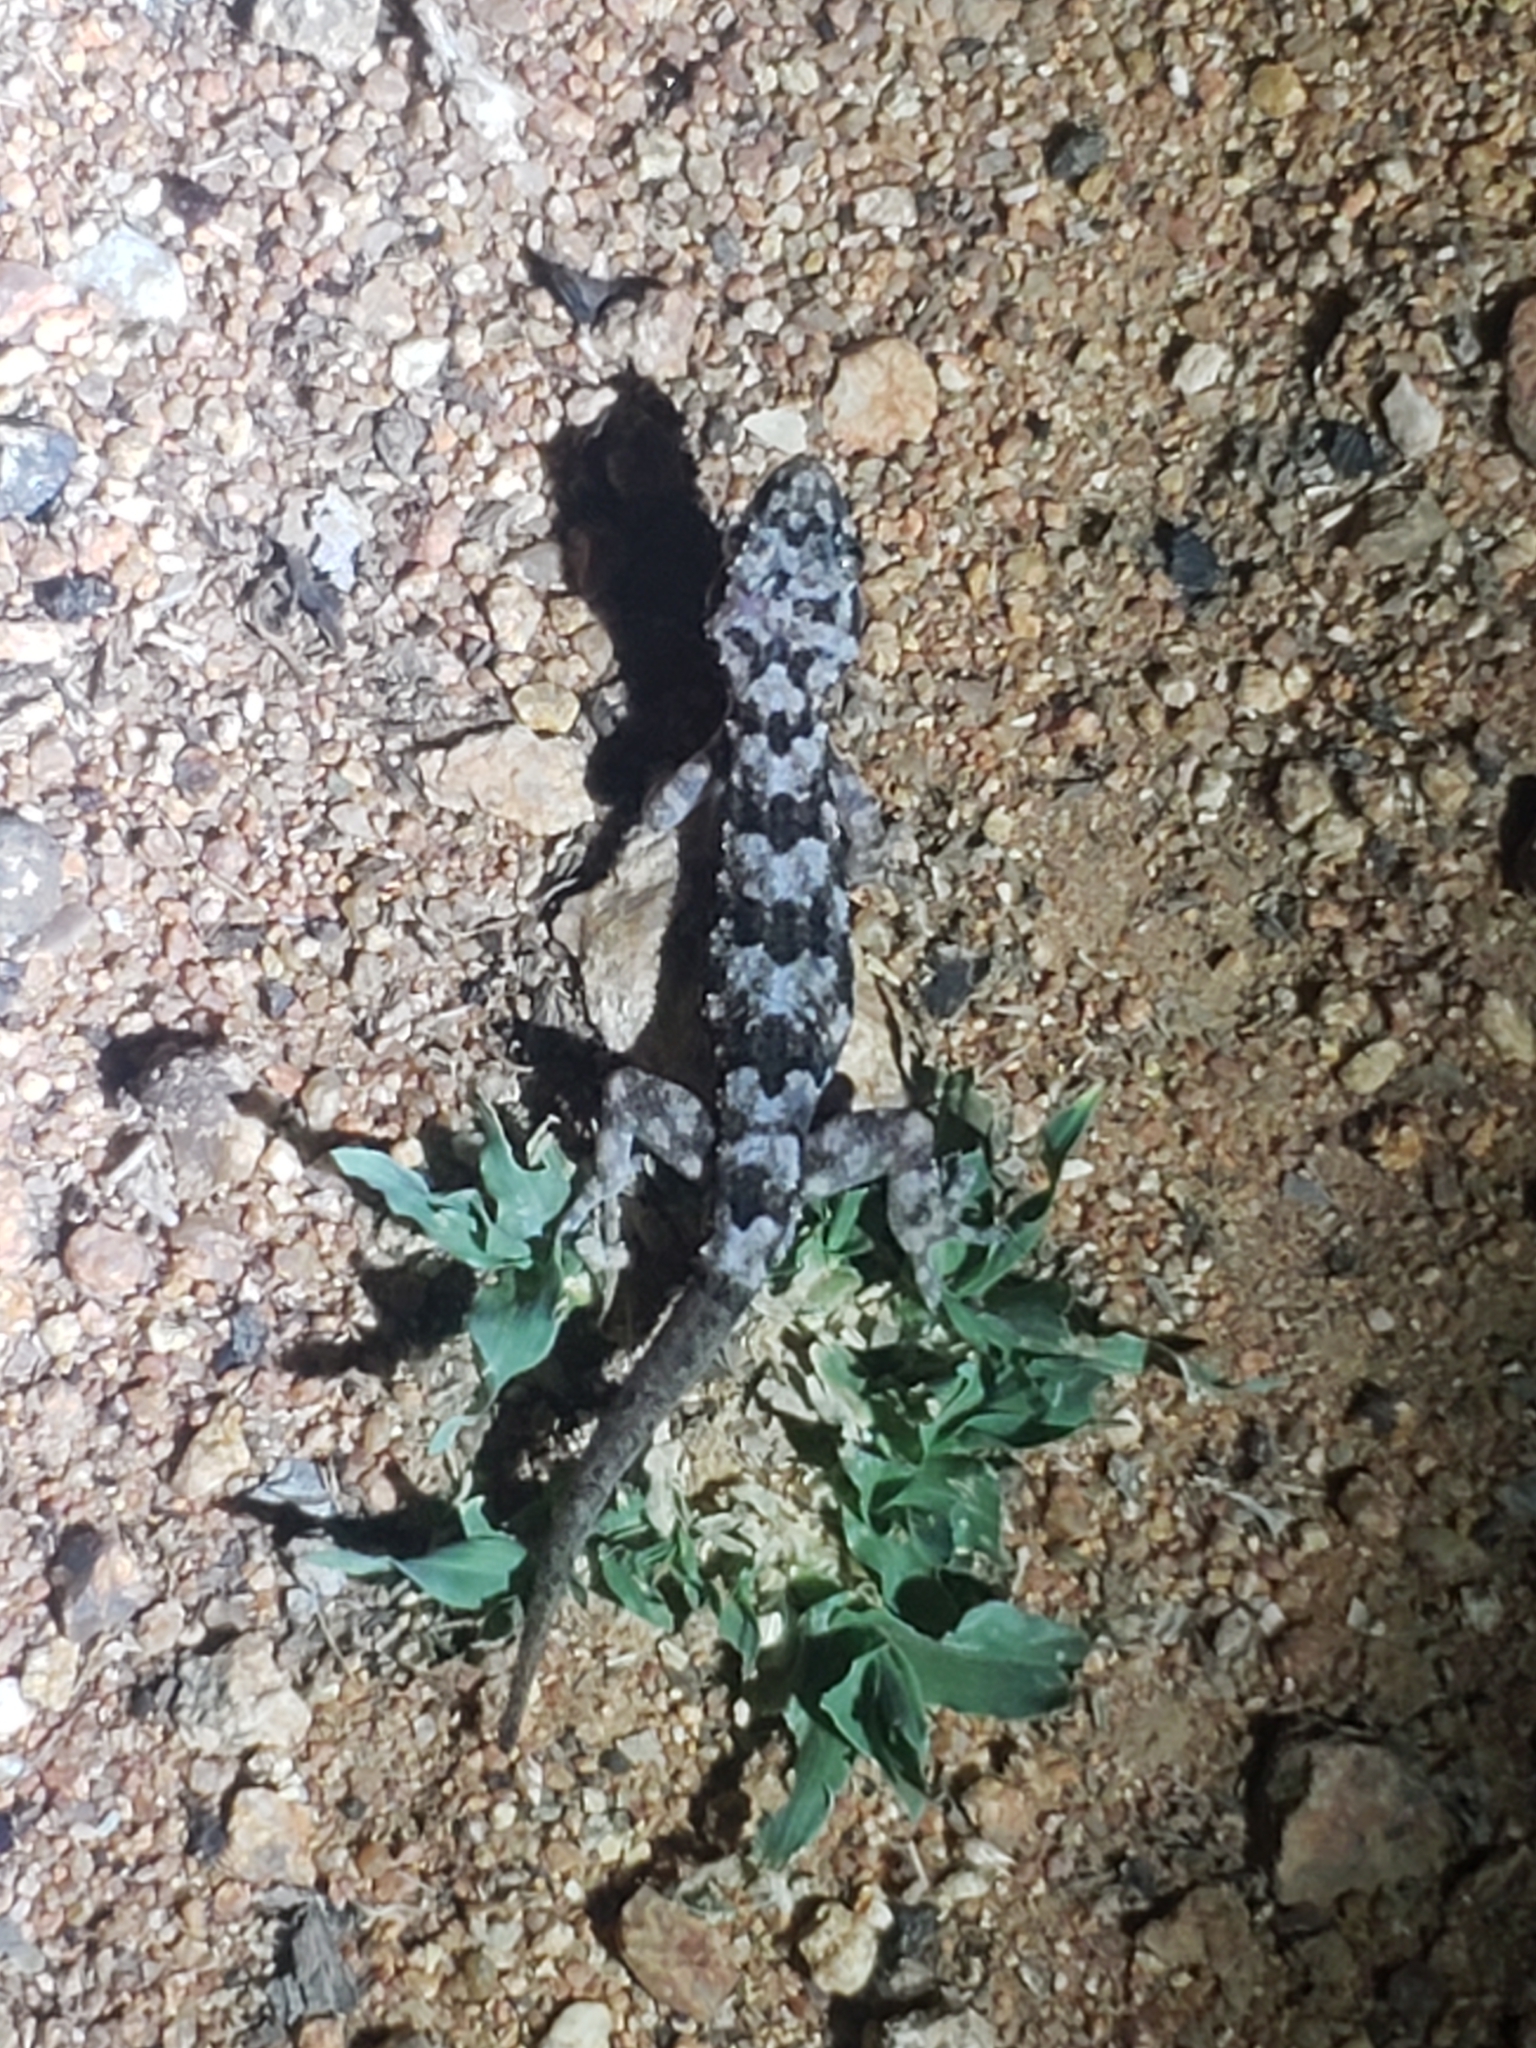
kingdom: Animalia
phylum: Chordata
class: Squamata
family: Gekkonidae
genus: Hemidactylus
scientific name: Hemidactylus mabouia
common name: House gecko
